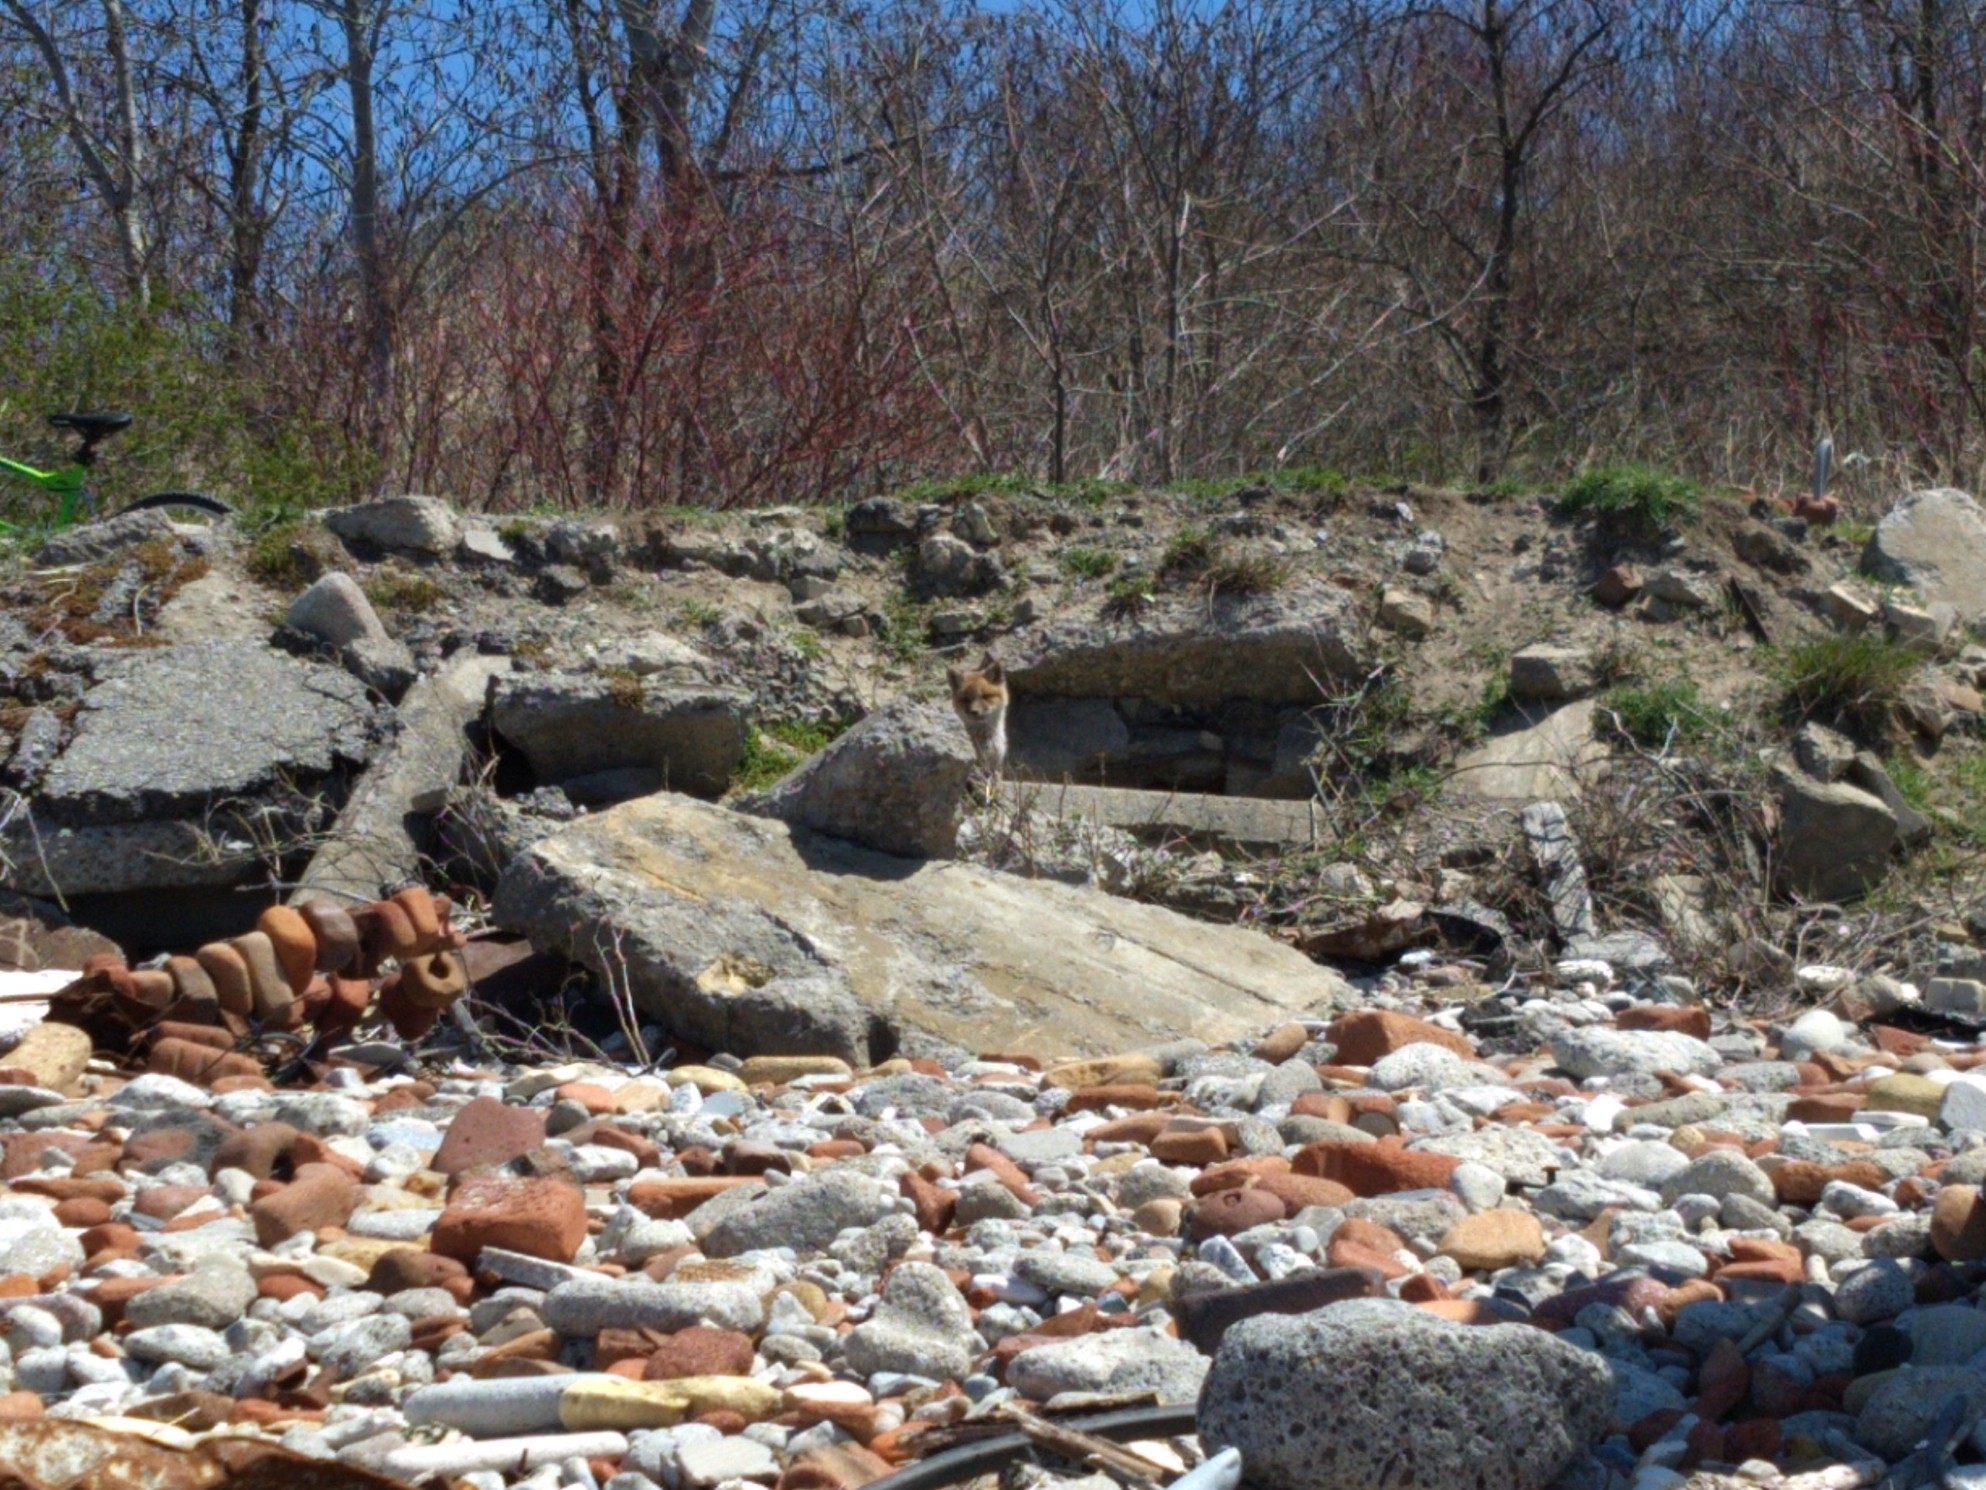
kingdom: Animalia
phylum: Chordata
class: Mammalia
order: Carnivora
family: Canidae
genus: Vulpes
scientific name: Vulpes vulpes
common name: Red fox
